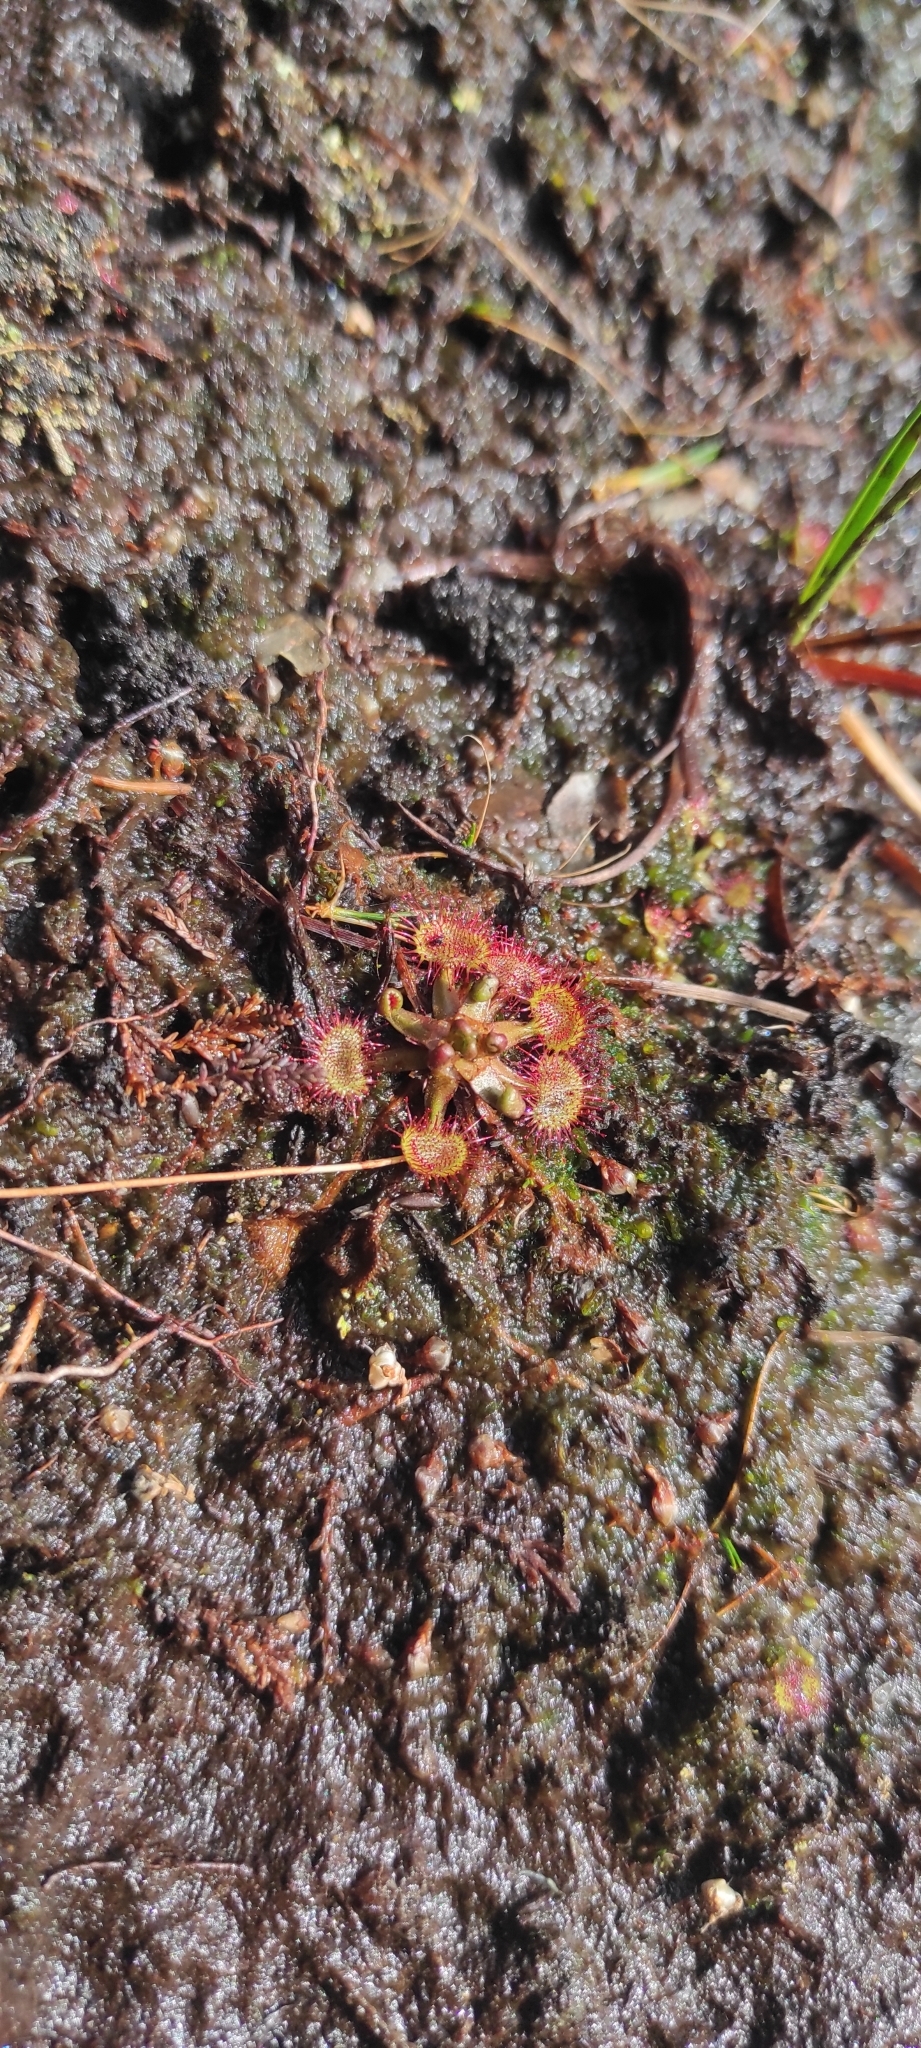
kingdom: Plantae
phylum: Tracheophyta
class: Magnoliopsida
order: Caryophyllales
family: Droseraceae
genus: Drosera
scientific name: Drosera rotundifolia
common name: Round-leaved sundew
